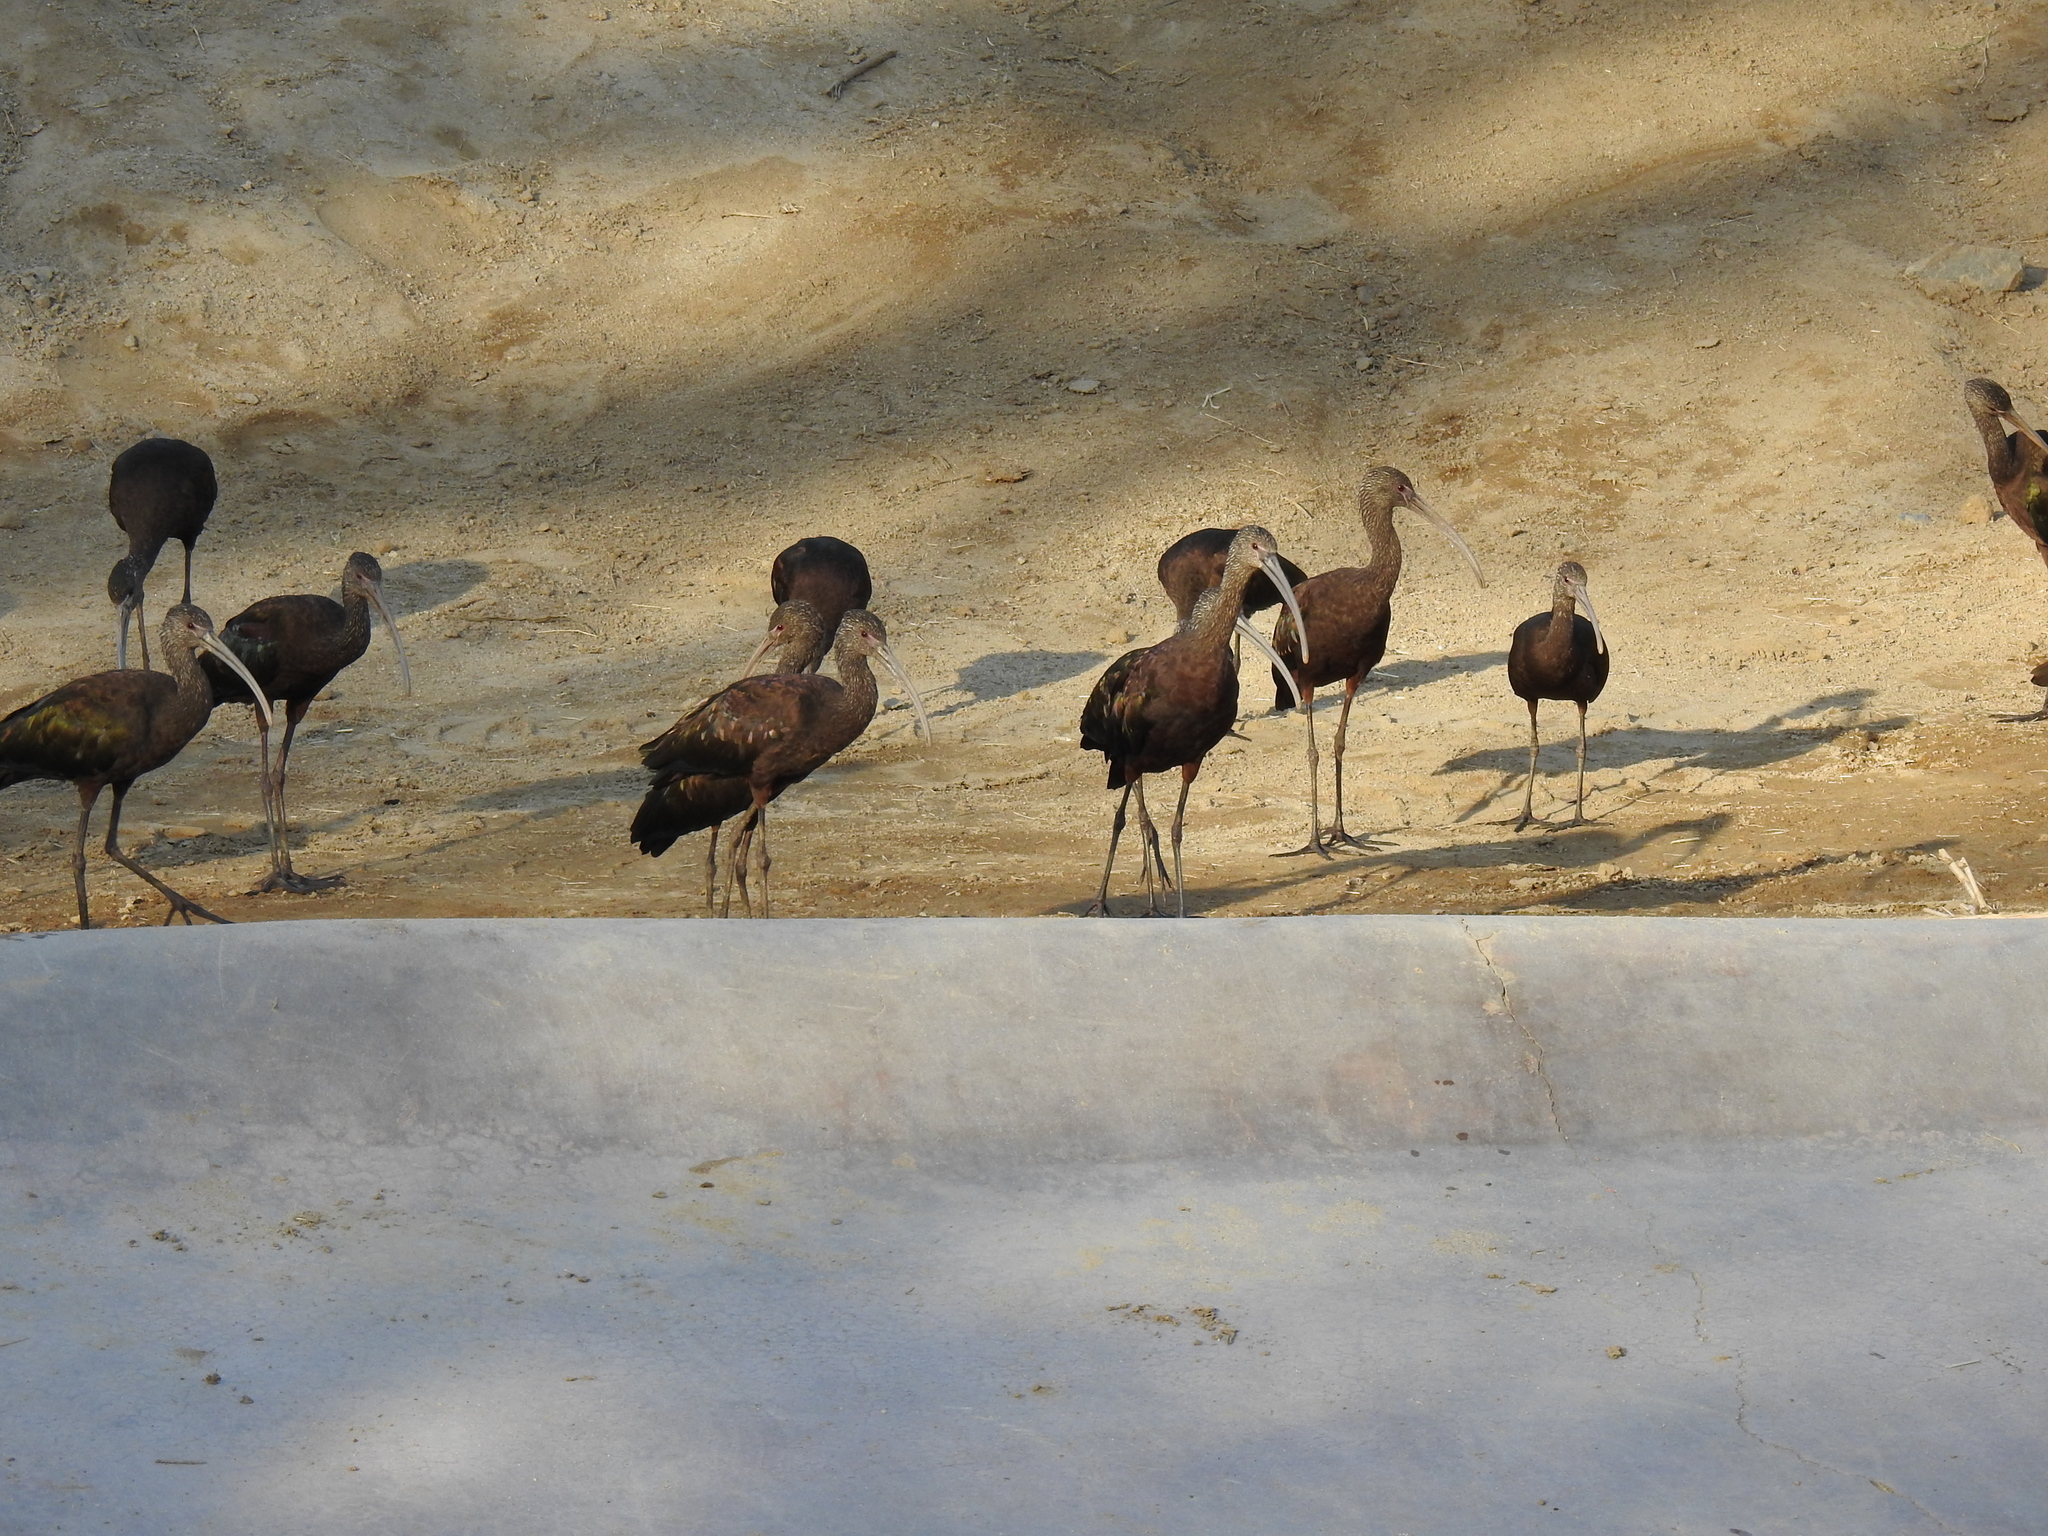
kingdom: Animalia
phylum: Chordata
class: Aves
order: Pelecaniformes
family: Threskiornithidae
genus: Plegadis
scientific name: Plegadis chihi
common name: White-faced ibis
